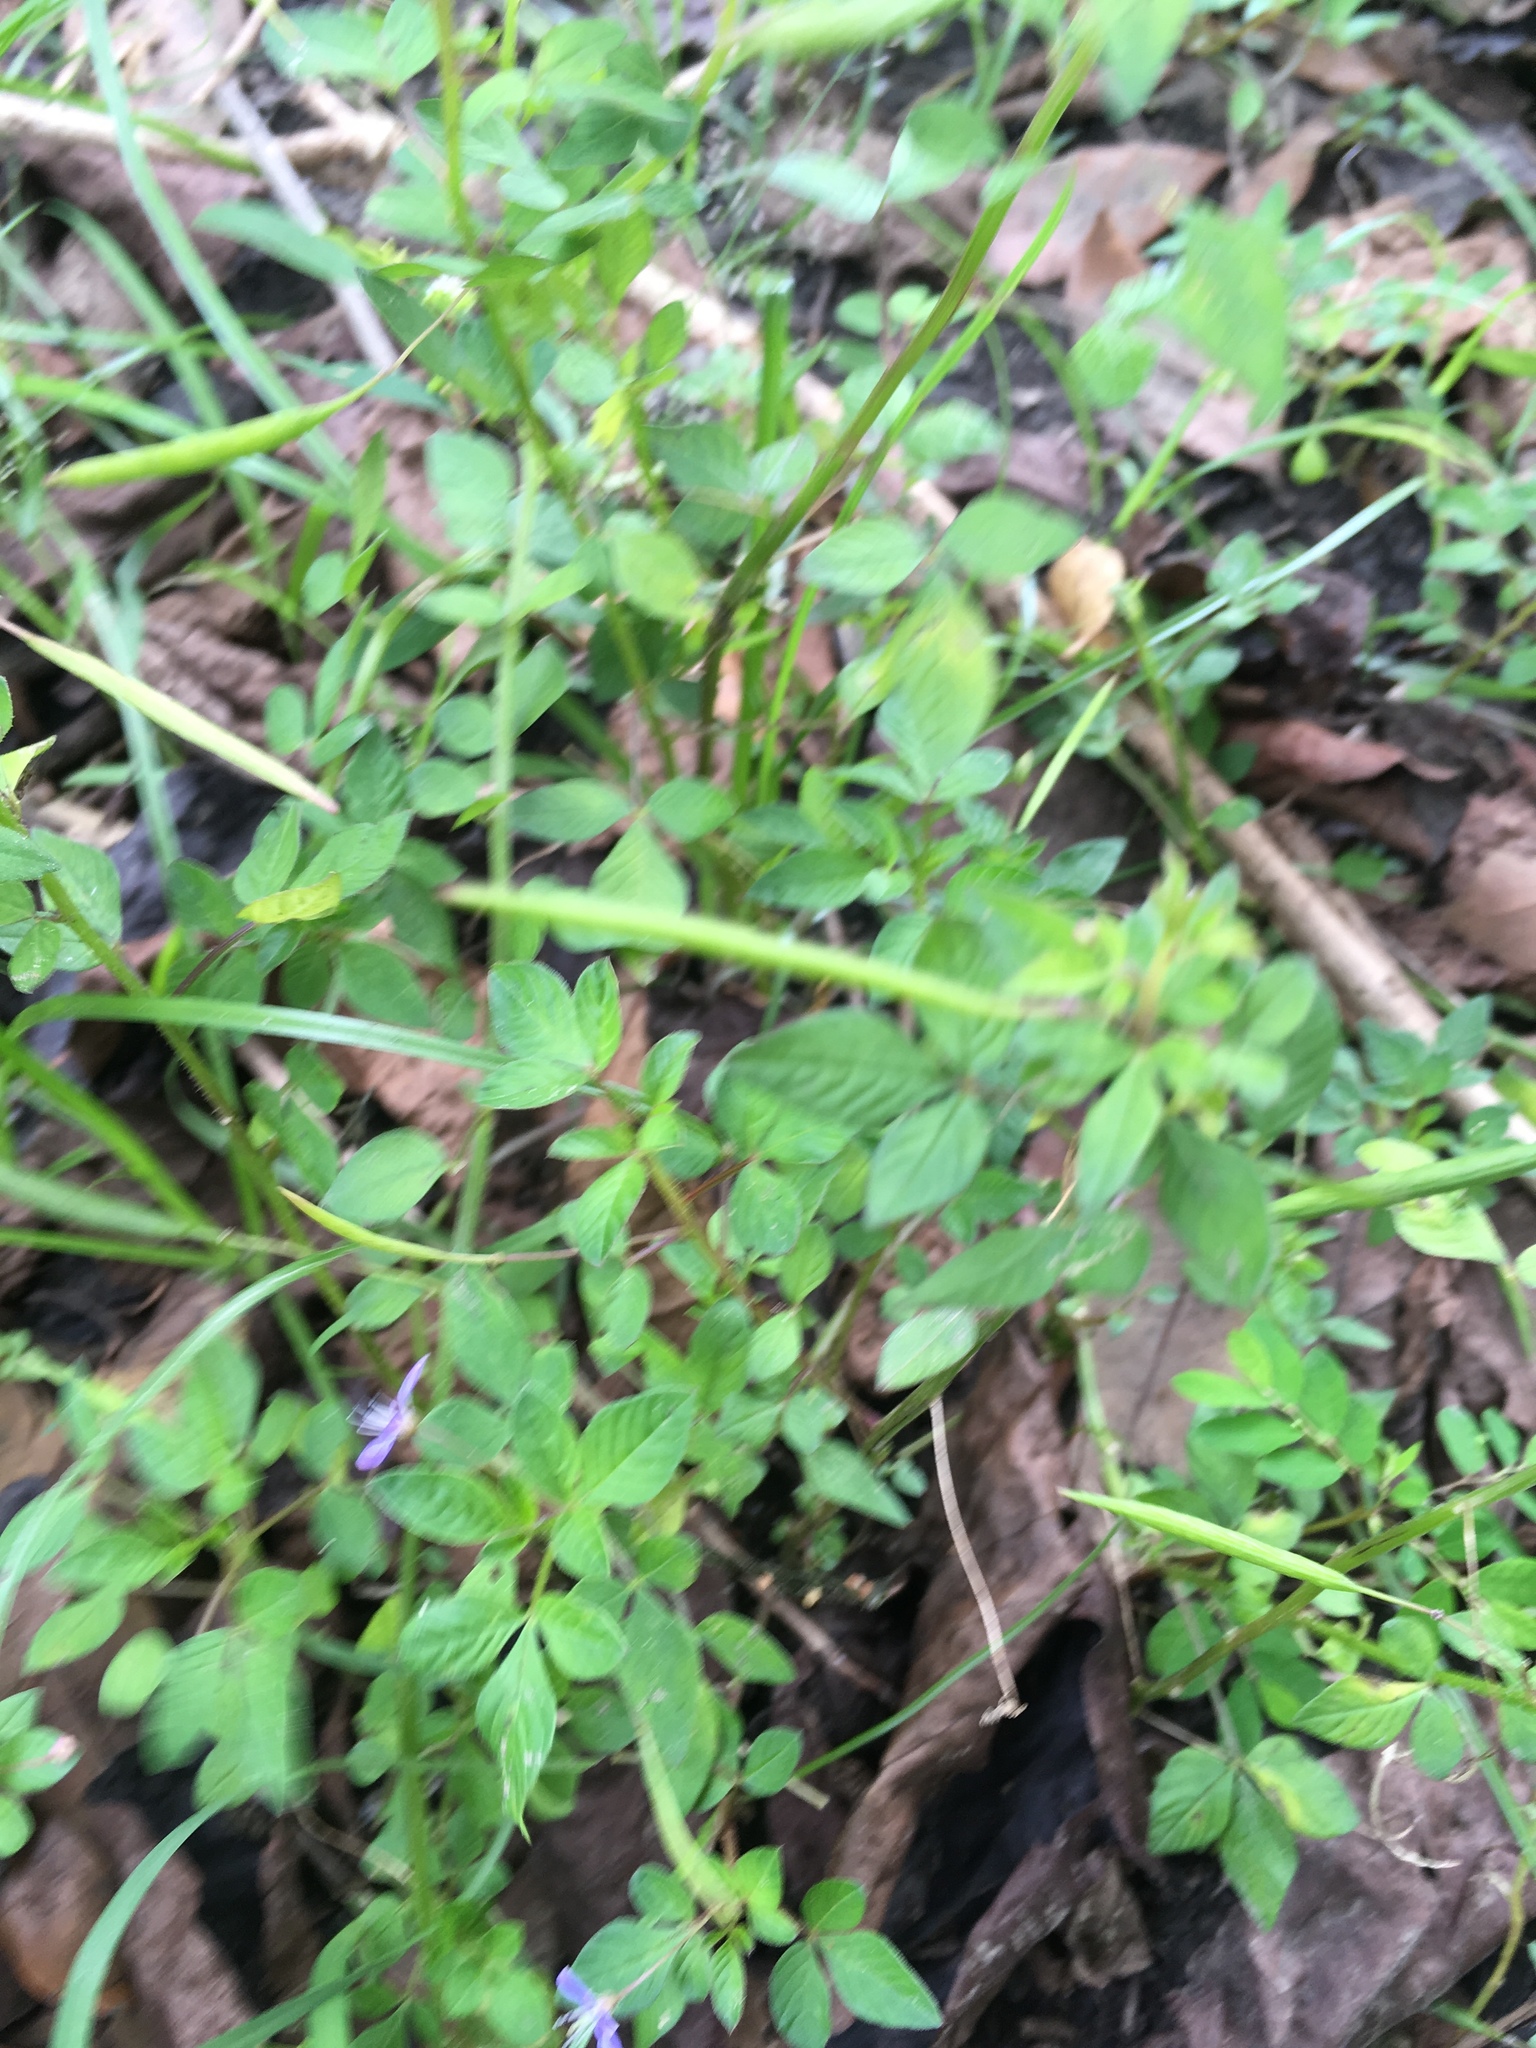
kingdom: Plantae
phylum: Tracheophyta
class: Magnoliopsida
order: Brassicales
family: Cleomaceae
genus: Sieruela
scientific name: Sieruela rutidosperma
